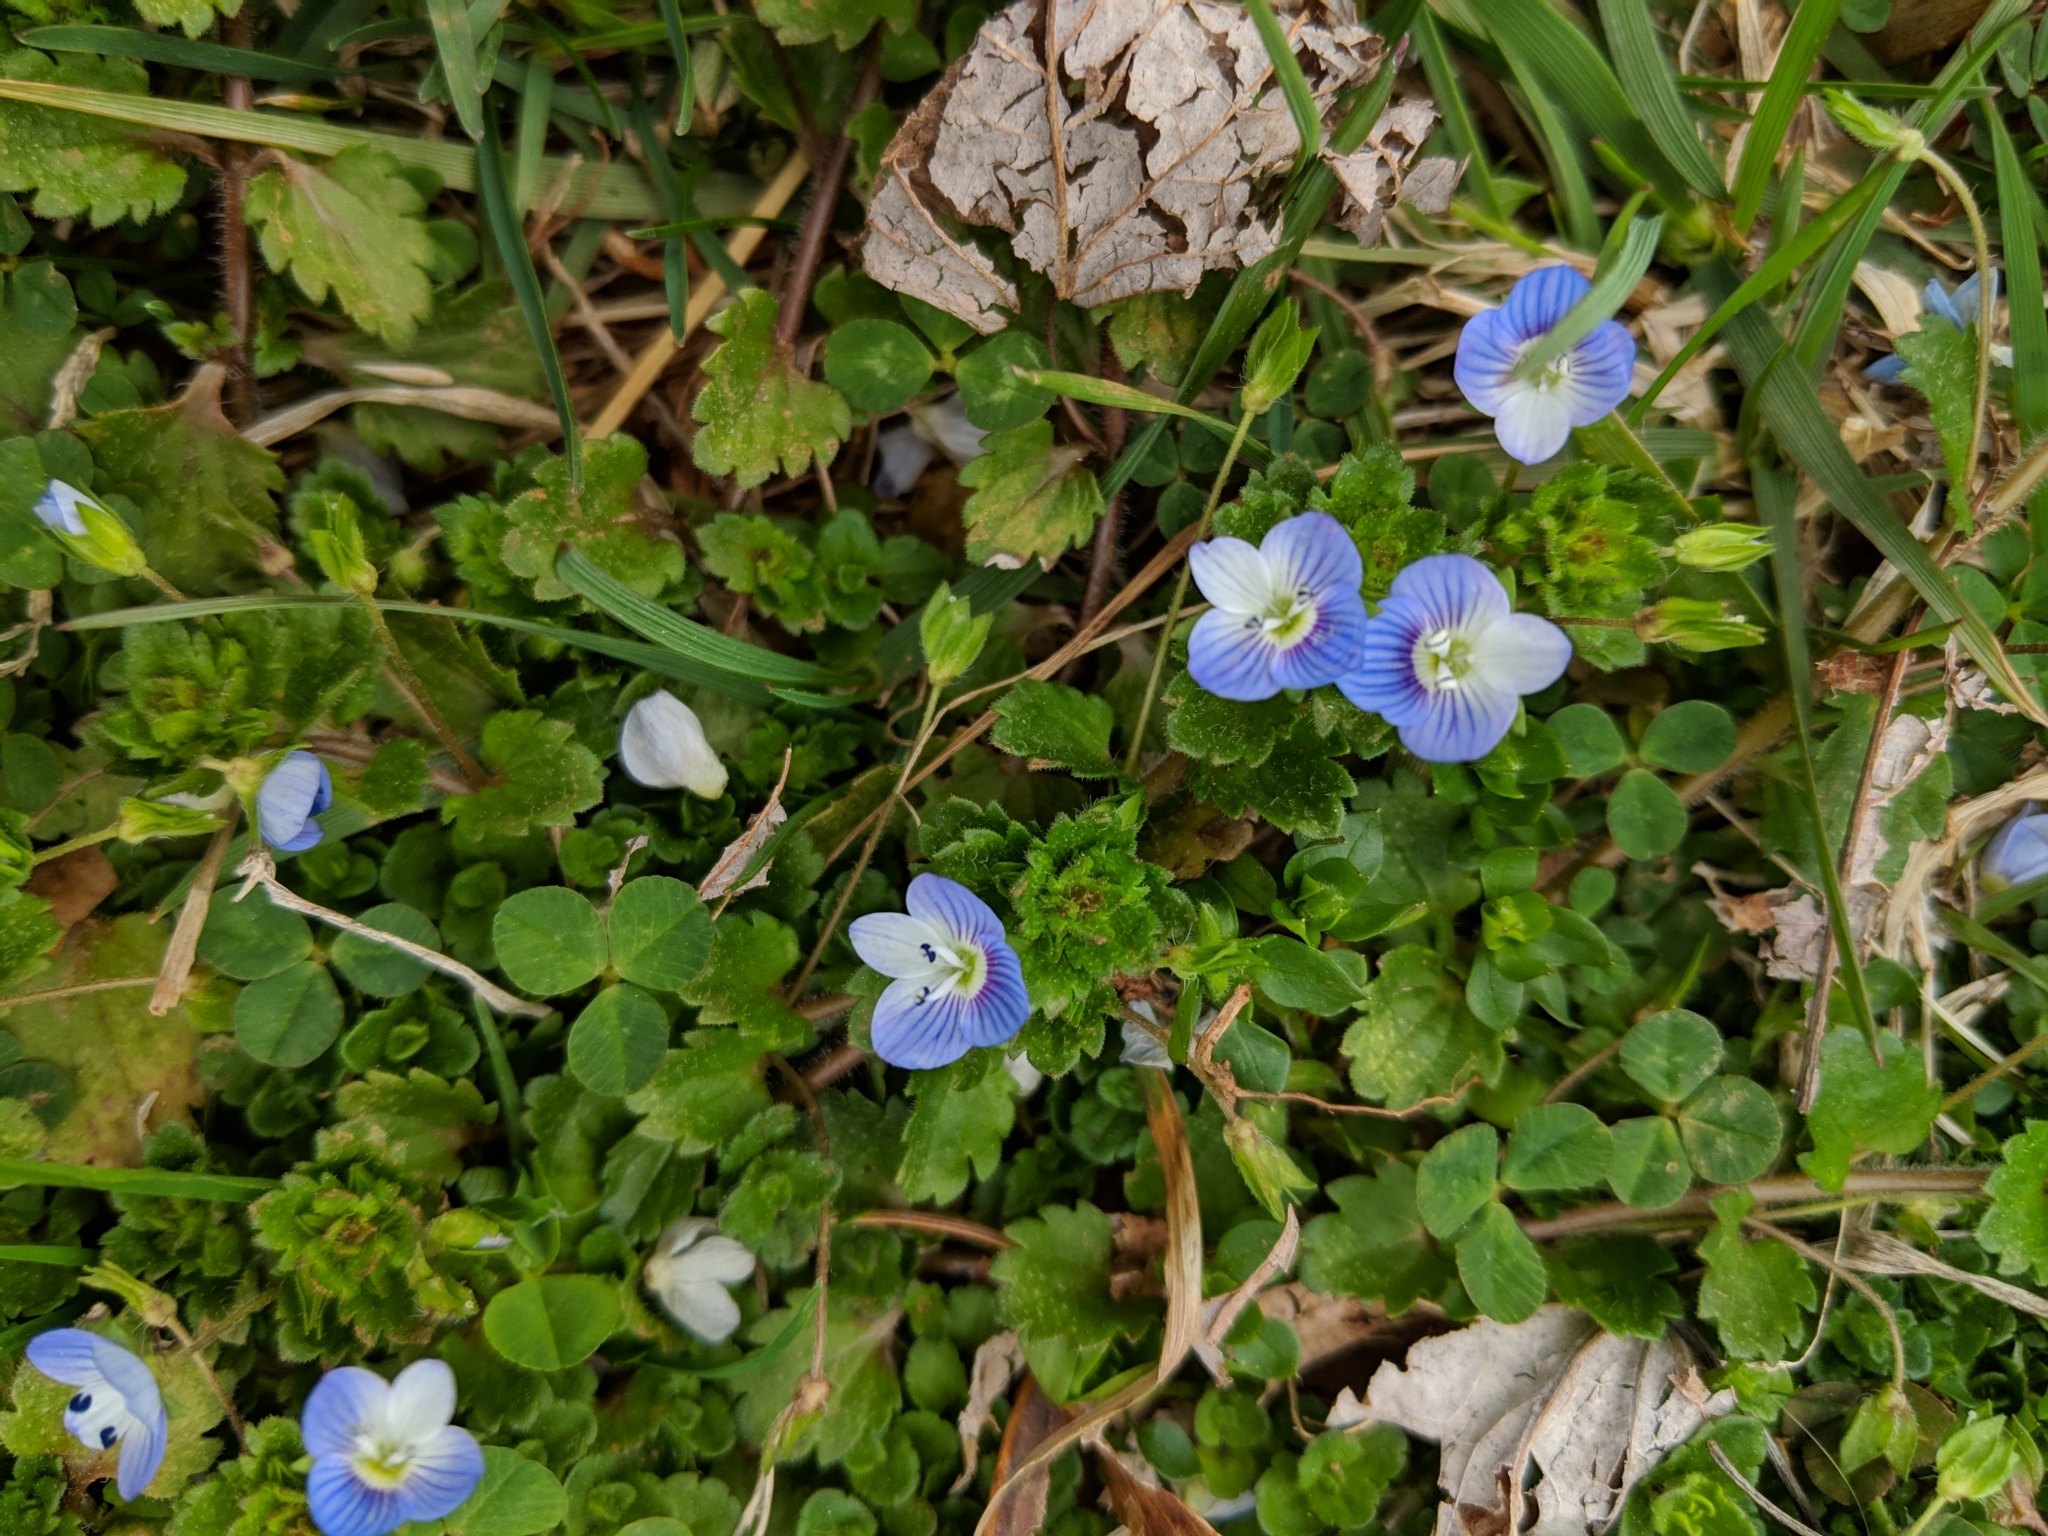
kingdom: Plantae
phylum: Tracheophyta
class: Magnoliopsida
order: Lamiales
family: Plantaginaceae
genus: Veronica
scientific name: Veronica persica
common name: Common field-speedwell
